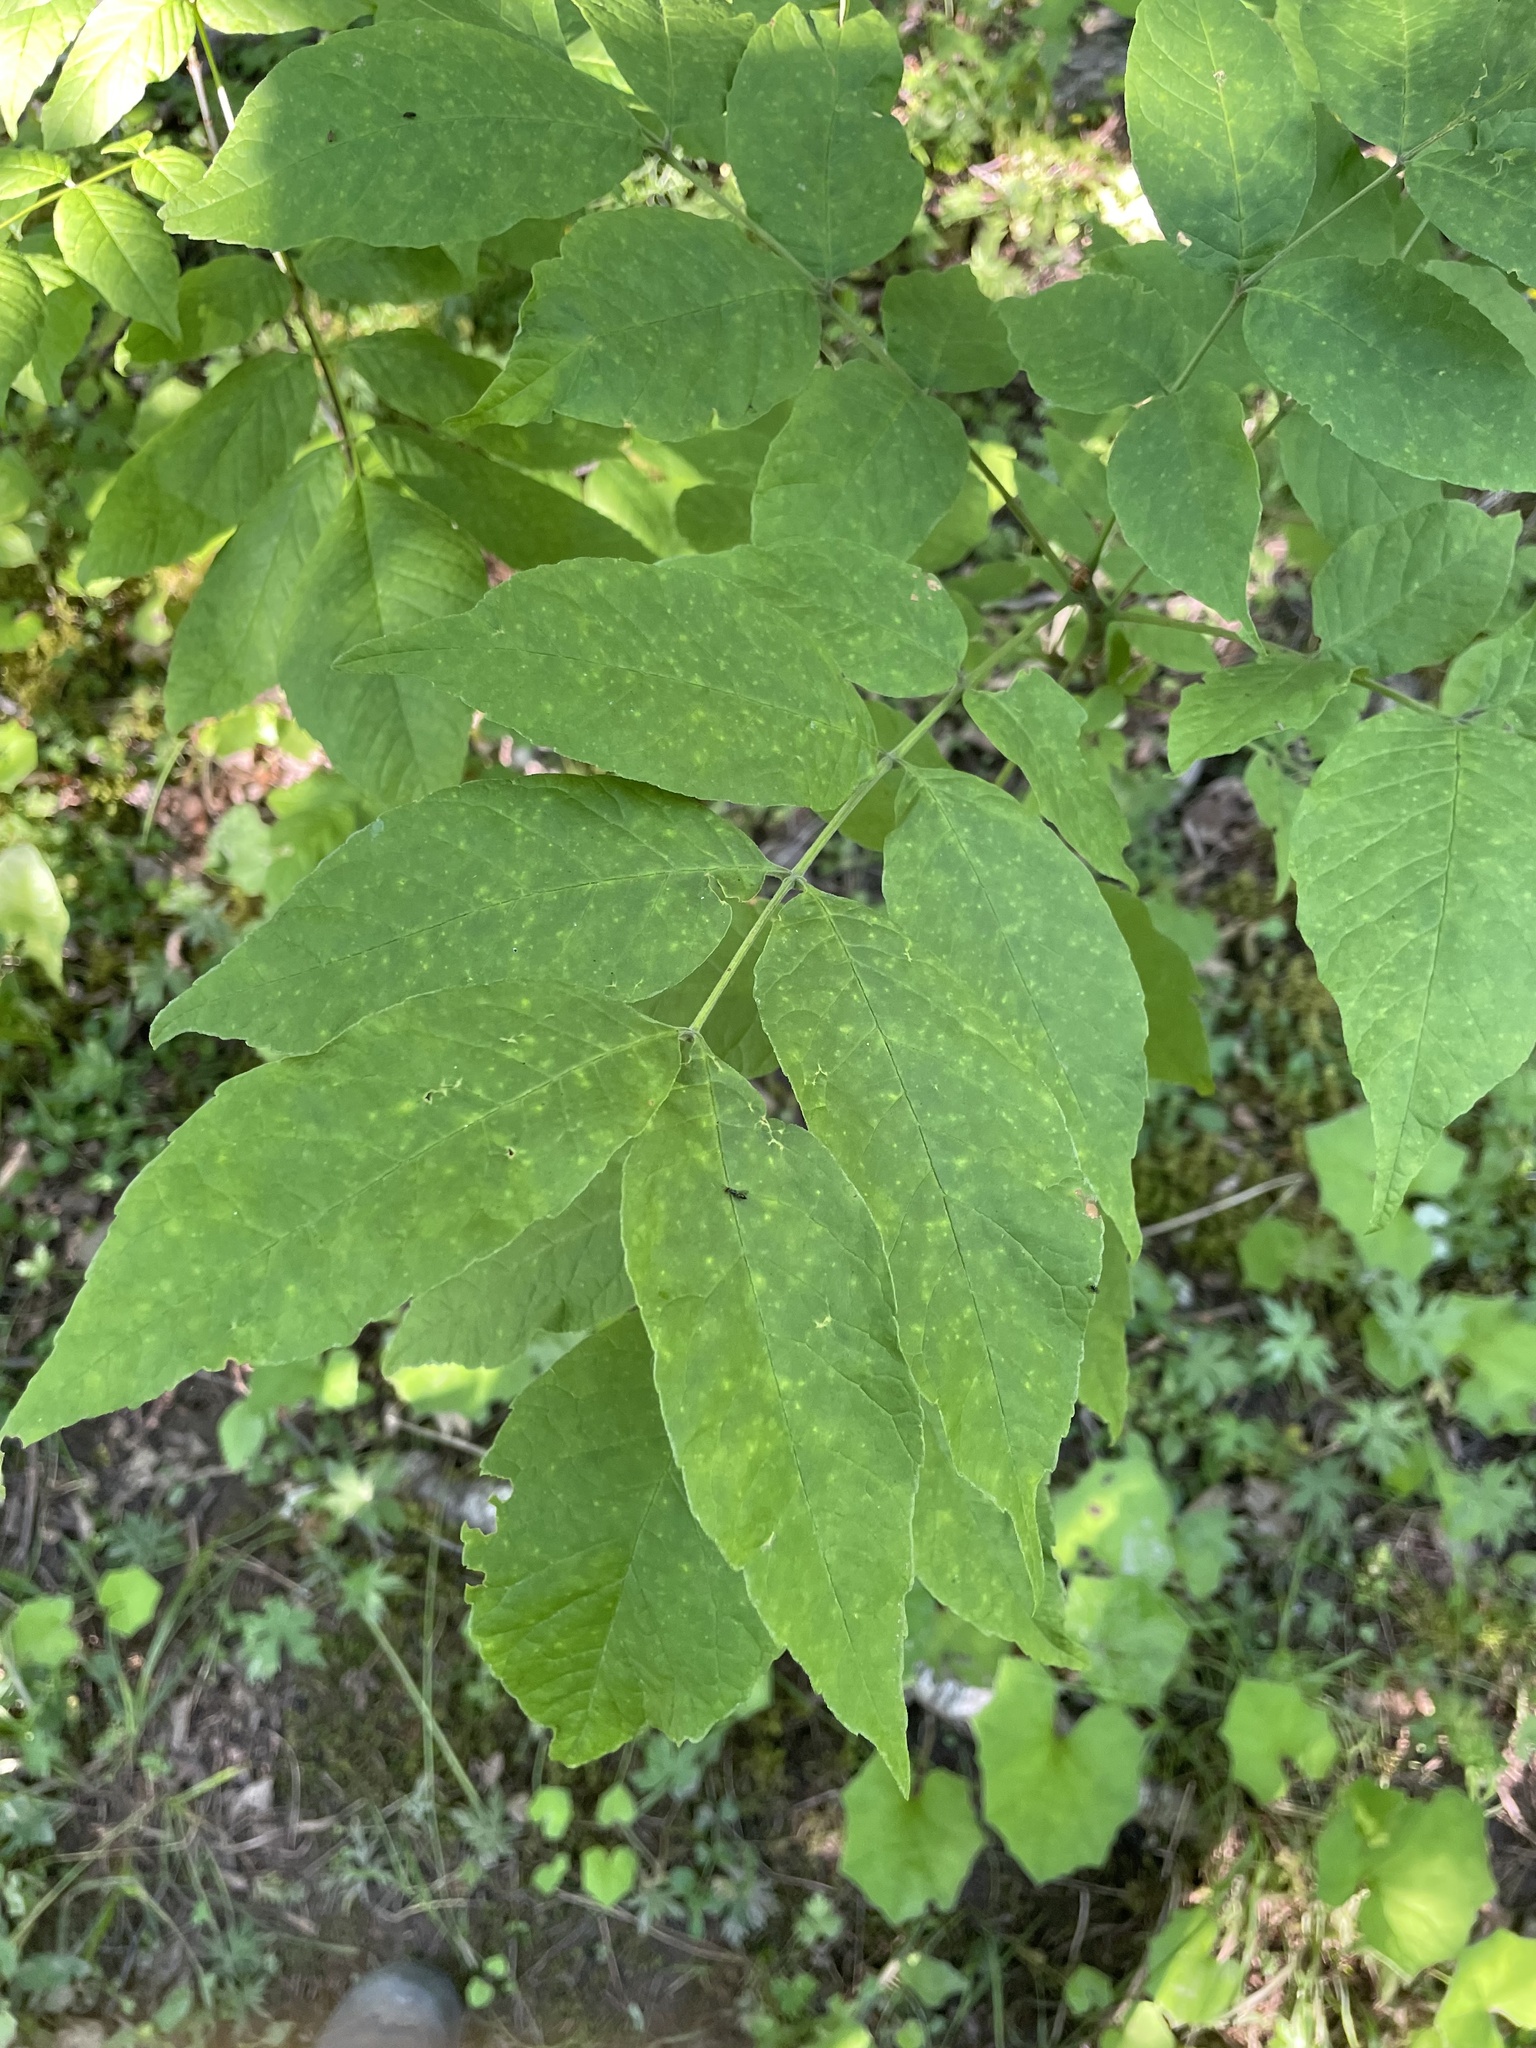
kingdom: Plantae
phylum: Tracheophyta
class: Magnoliopsida
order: Lamiales
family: Oleaceae
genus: Fraxinus
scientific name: Fraxinus americana
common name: White ash
